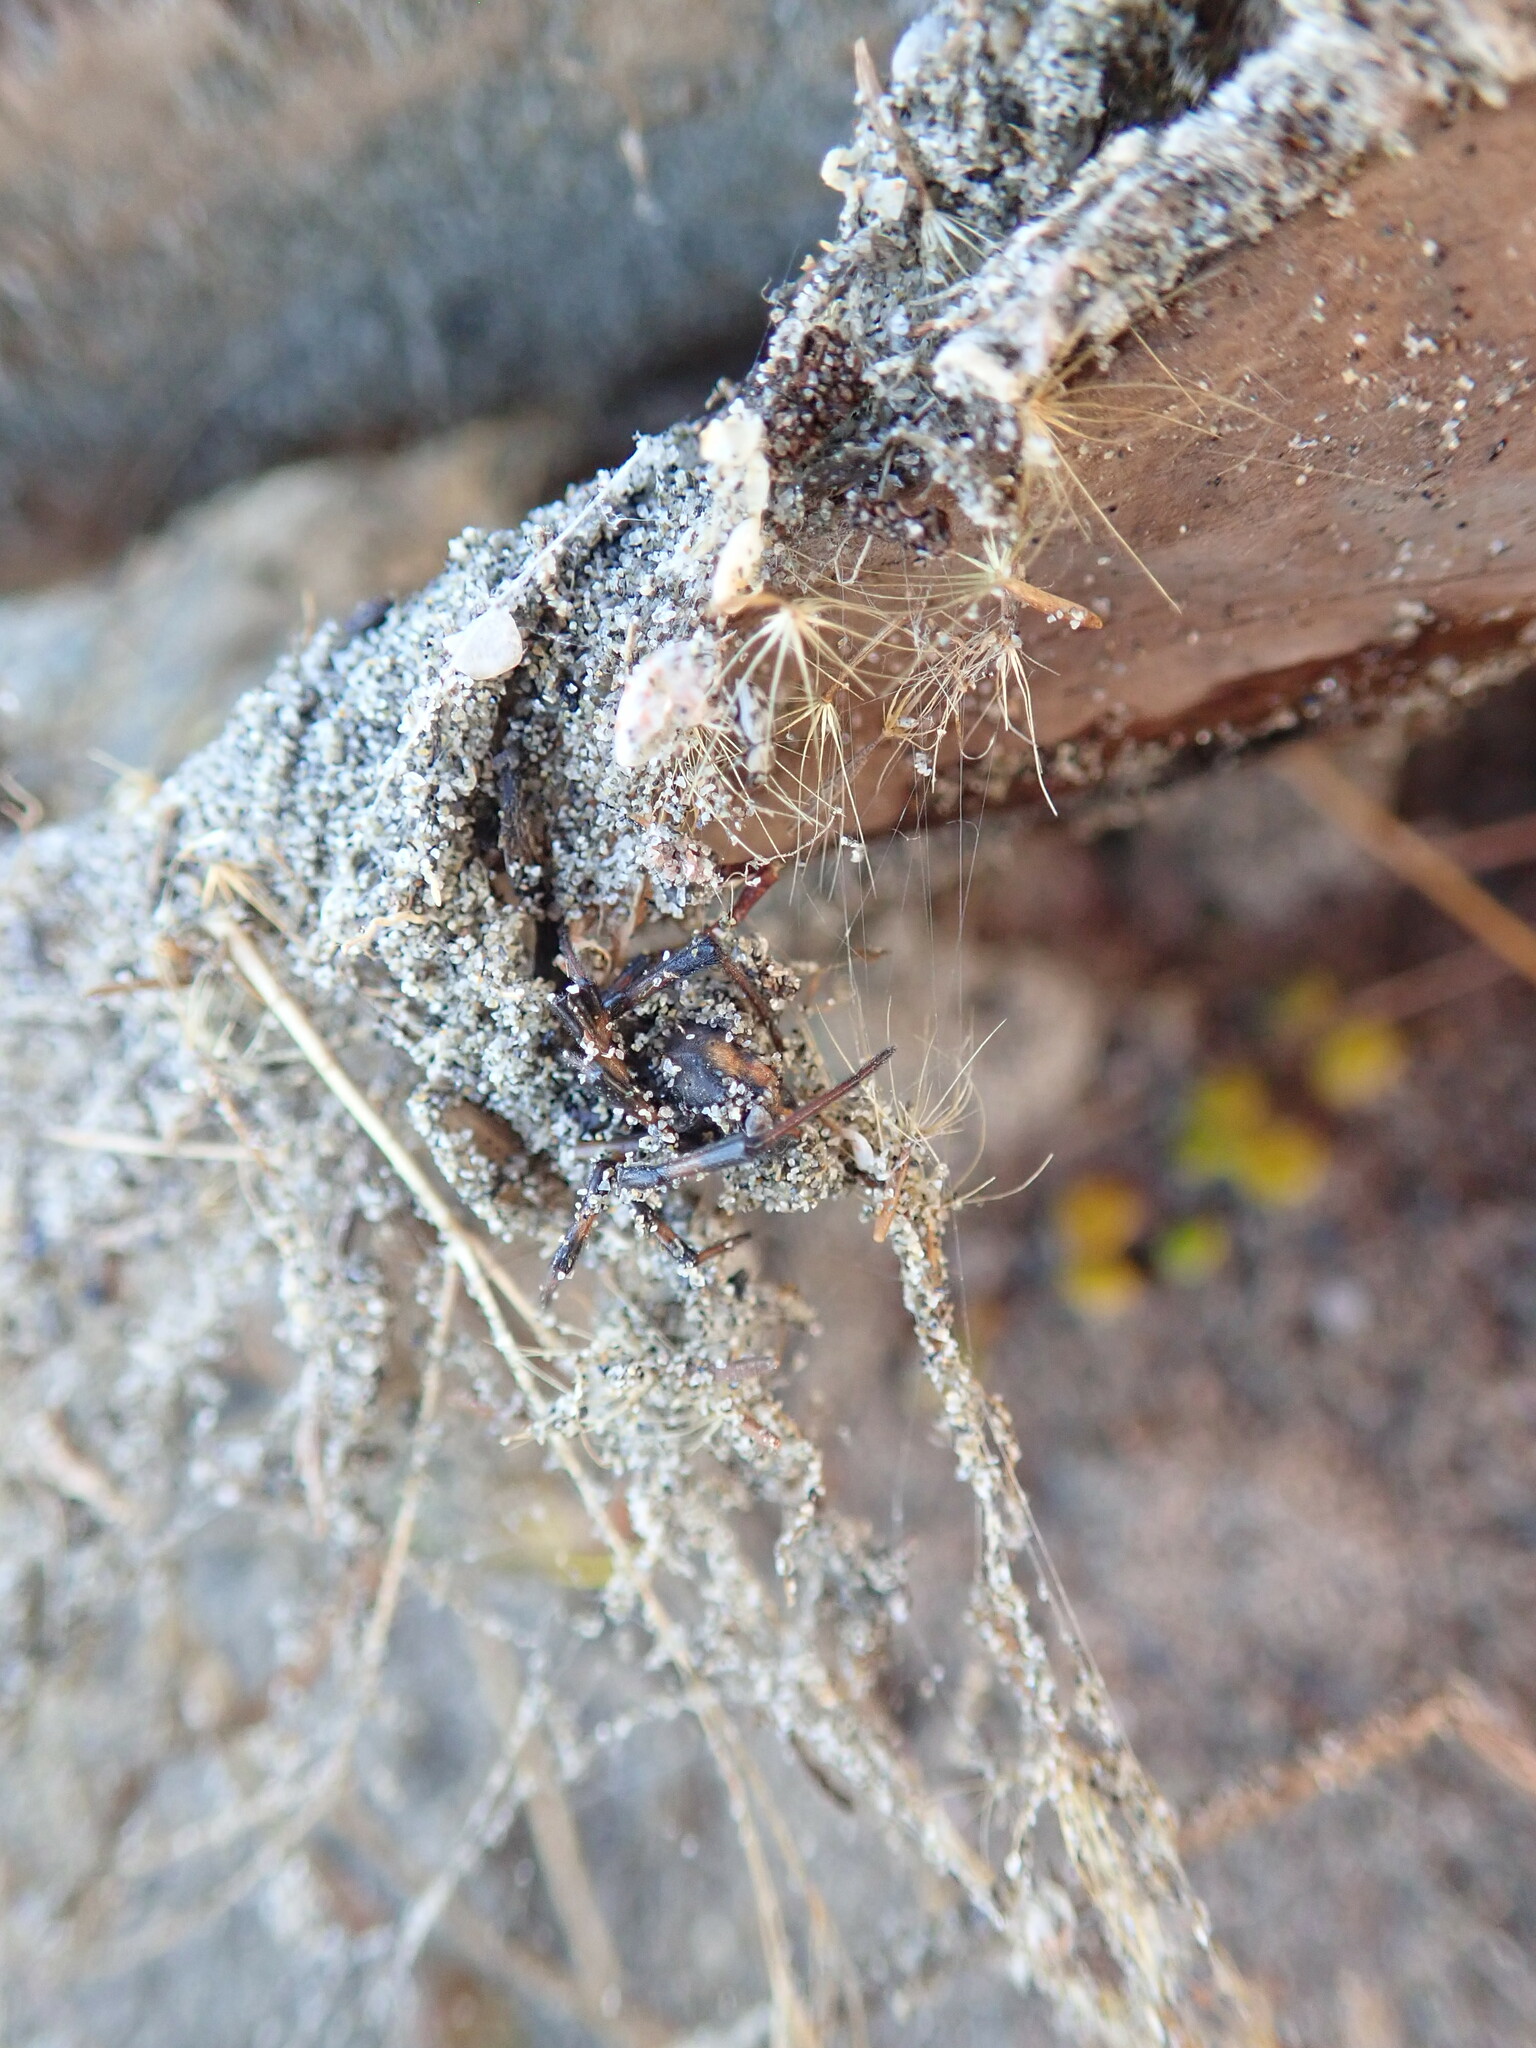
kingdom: Animalia
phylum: Arthropoda
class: Arachnida
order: Araneae
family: Theridiidae
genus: Latrodectus
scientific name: Latrodectus katipo
